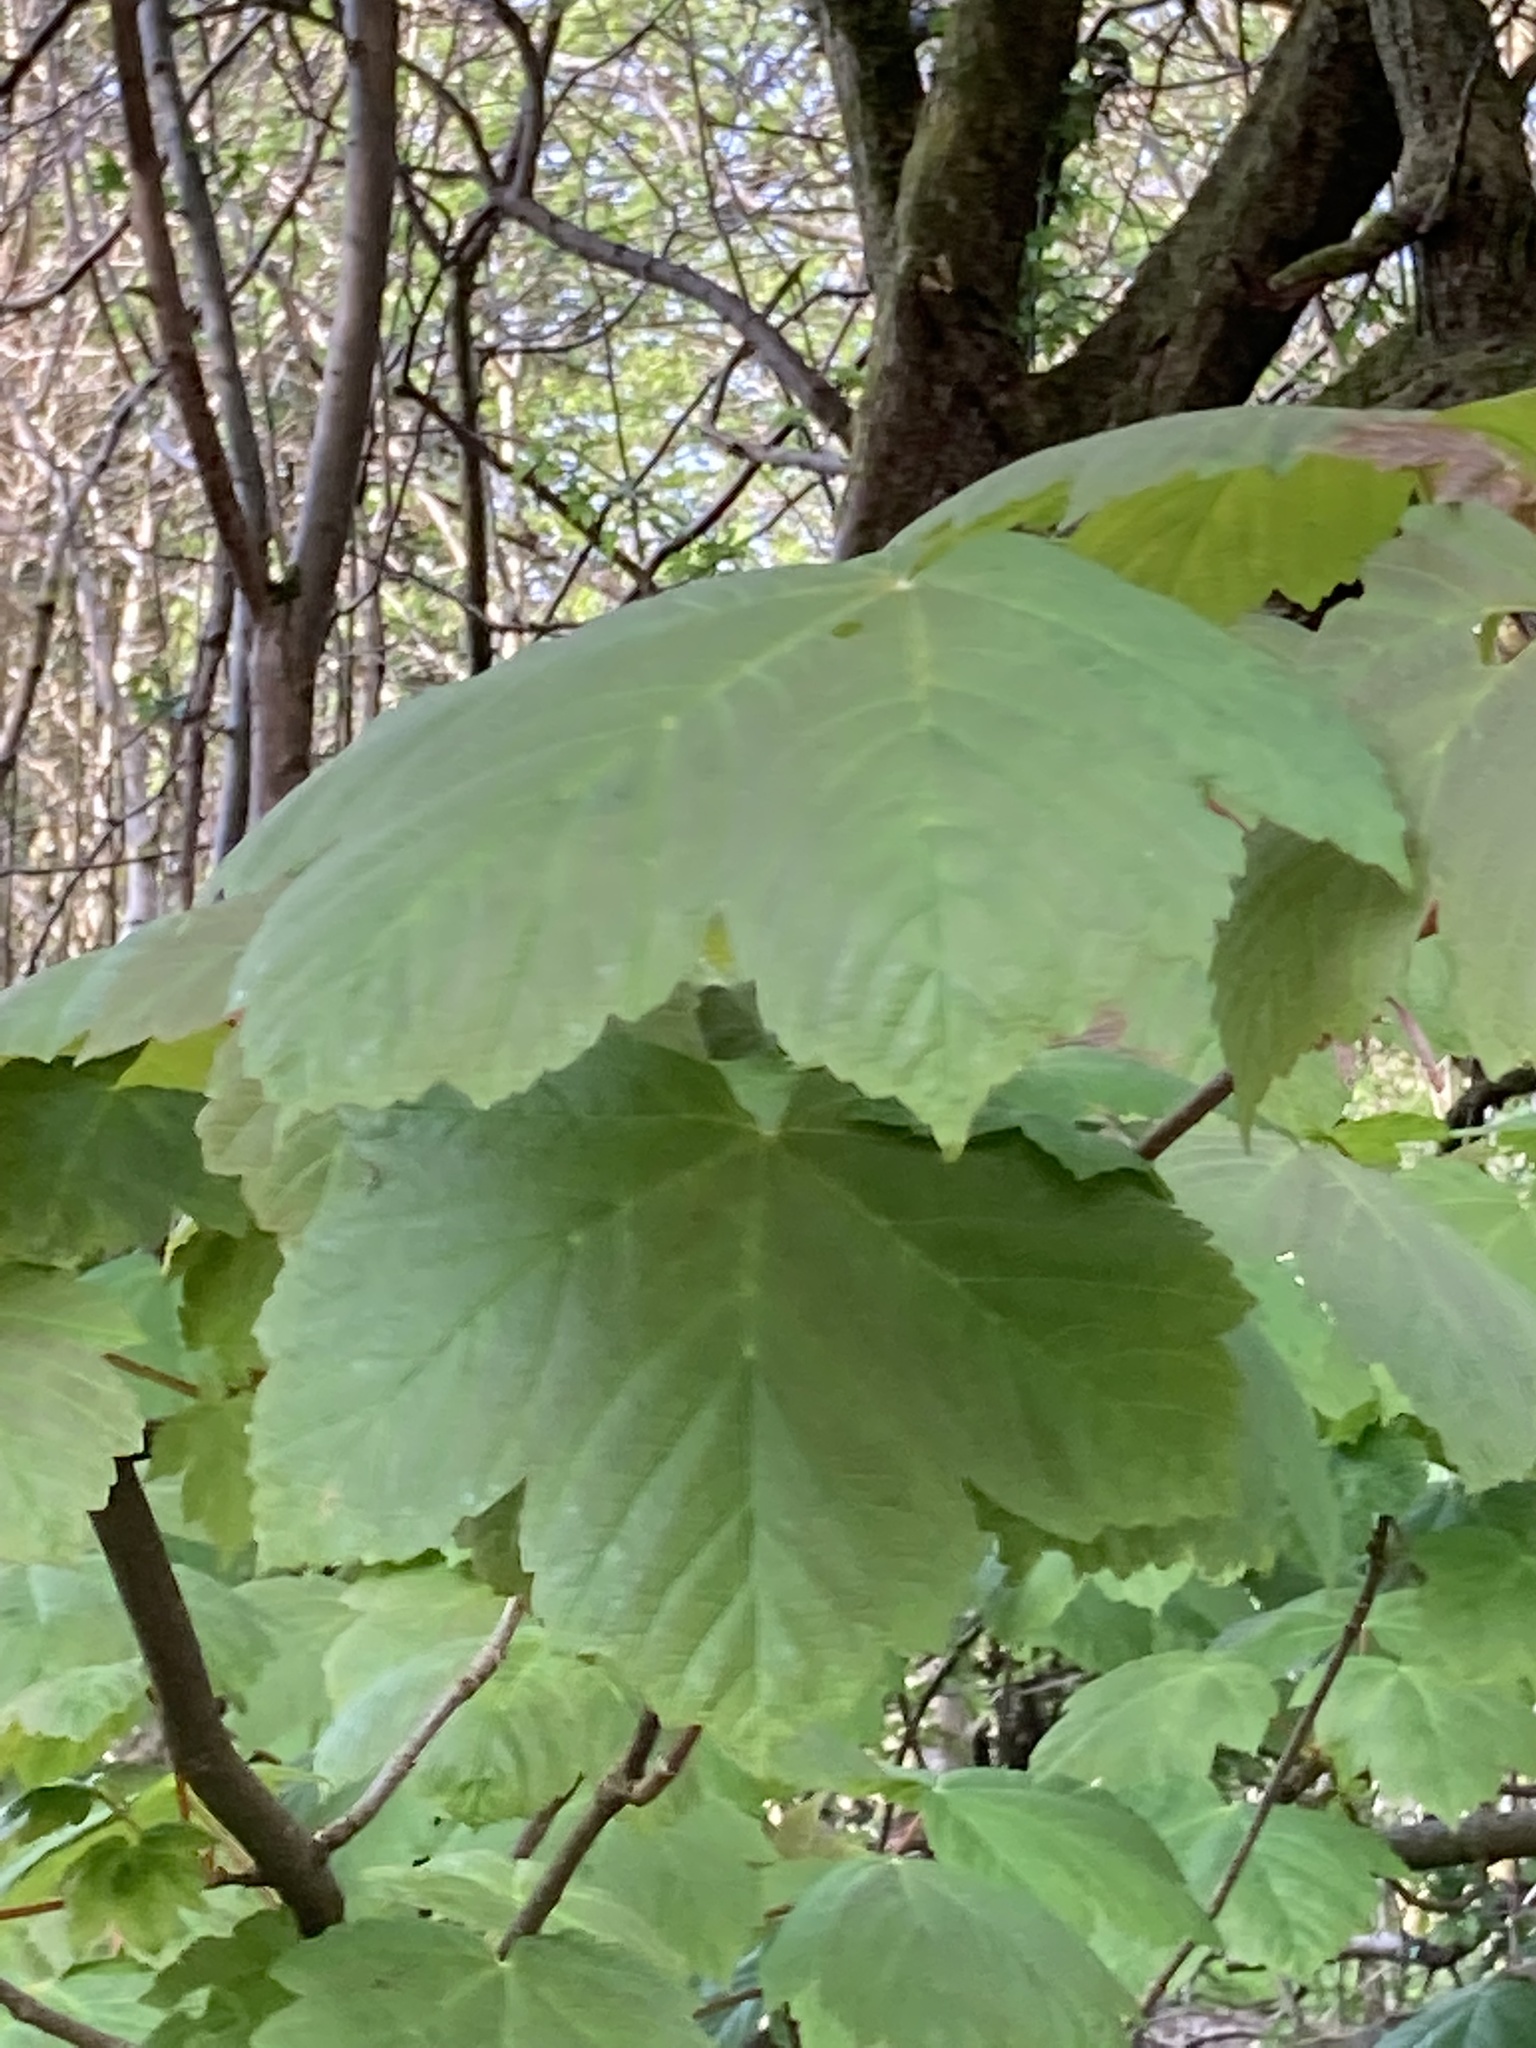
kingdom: Plantae
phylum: Tracheophyta
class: Magnoliopsida
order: Sapindales
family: Sapindaceae
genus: Acer
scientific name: Acer pseudoplatanus
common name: Sycamore
